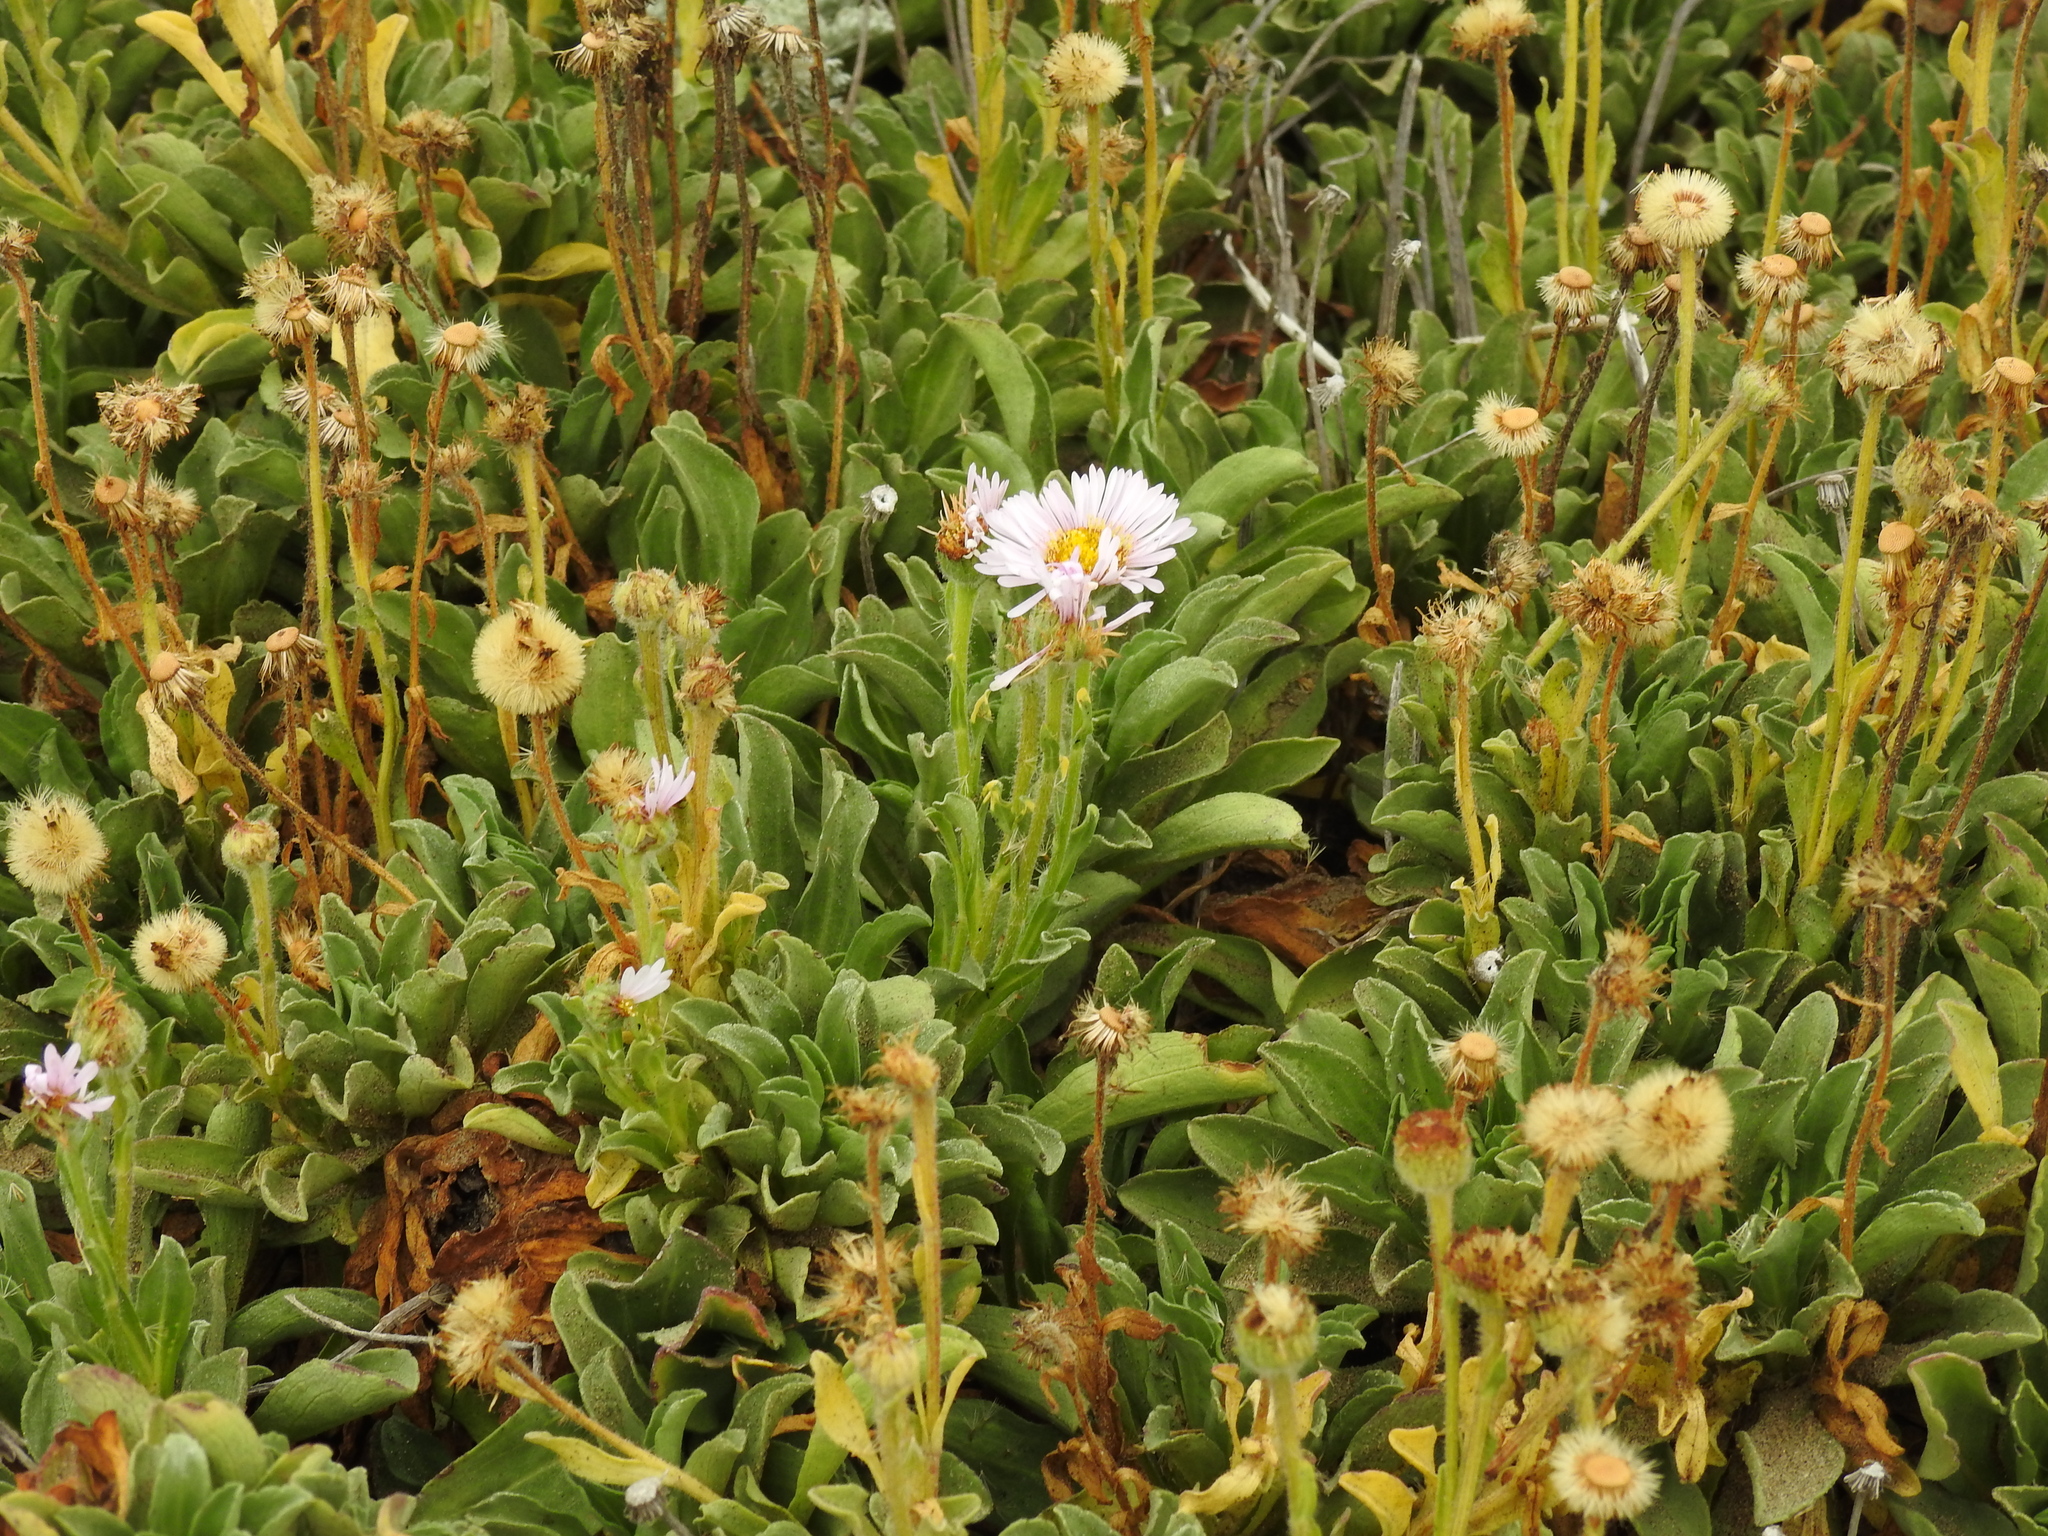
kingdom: Plantae
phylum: Tracheophyta
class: Magnoliopsida
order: Asterales
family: Asteraceae
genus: Erigeron
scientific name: Erigeron glaucus
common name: Seaside daisy
